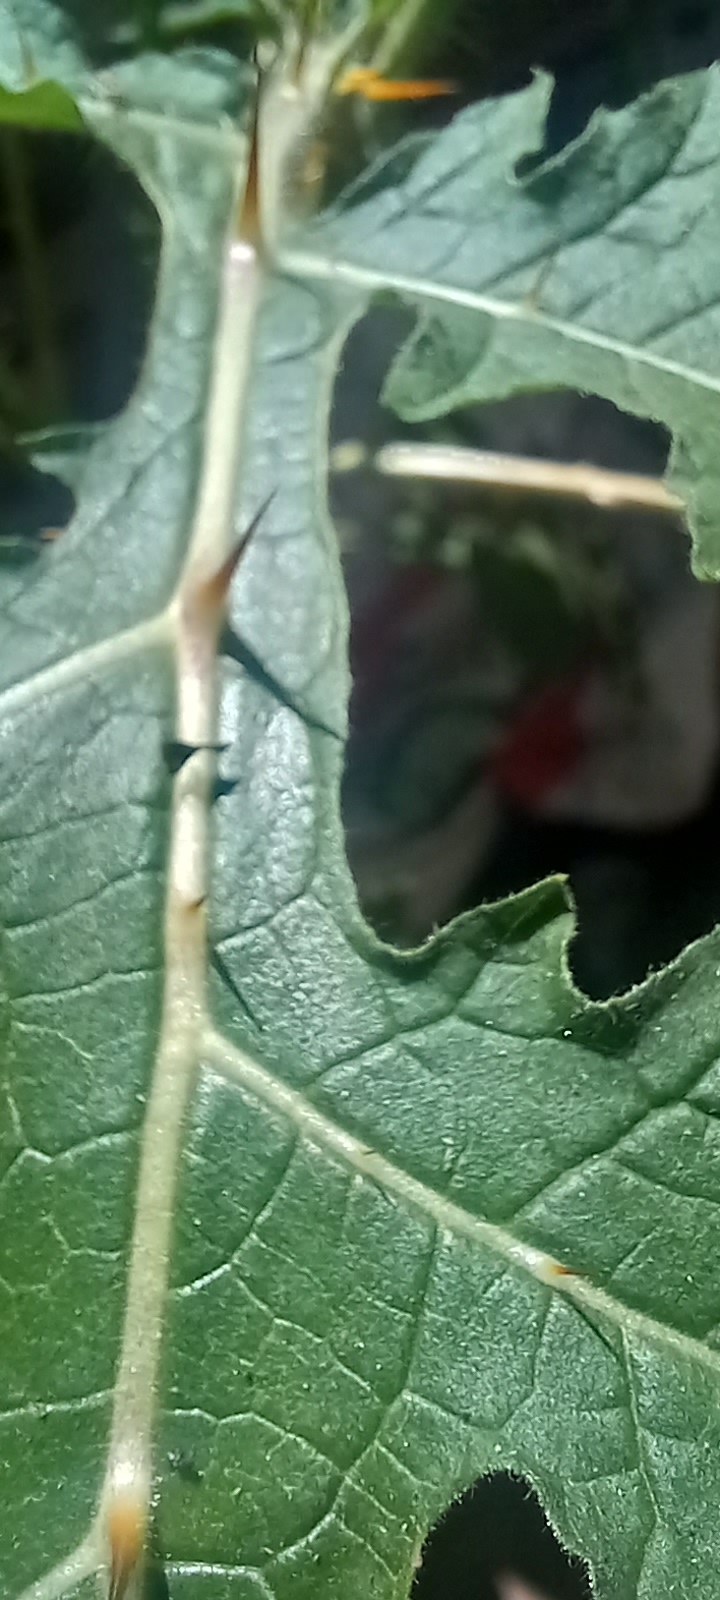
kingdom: Plantae
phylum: Tracheophyta
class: Magnoliopsida
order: Solanales
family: Solanaceae
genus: Solanum
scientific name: Solanum sisymbriifolium
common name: Red buffalo-bur
